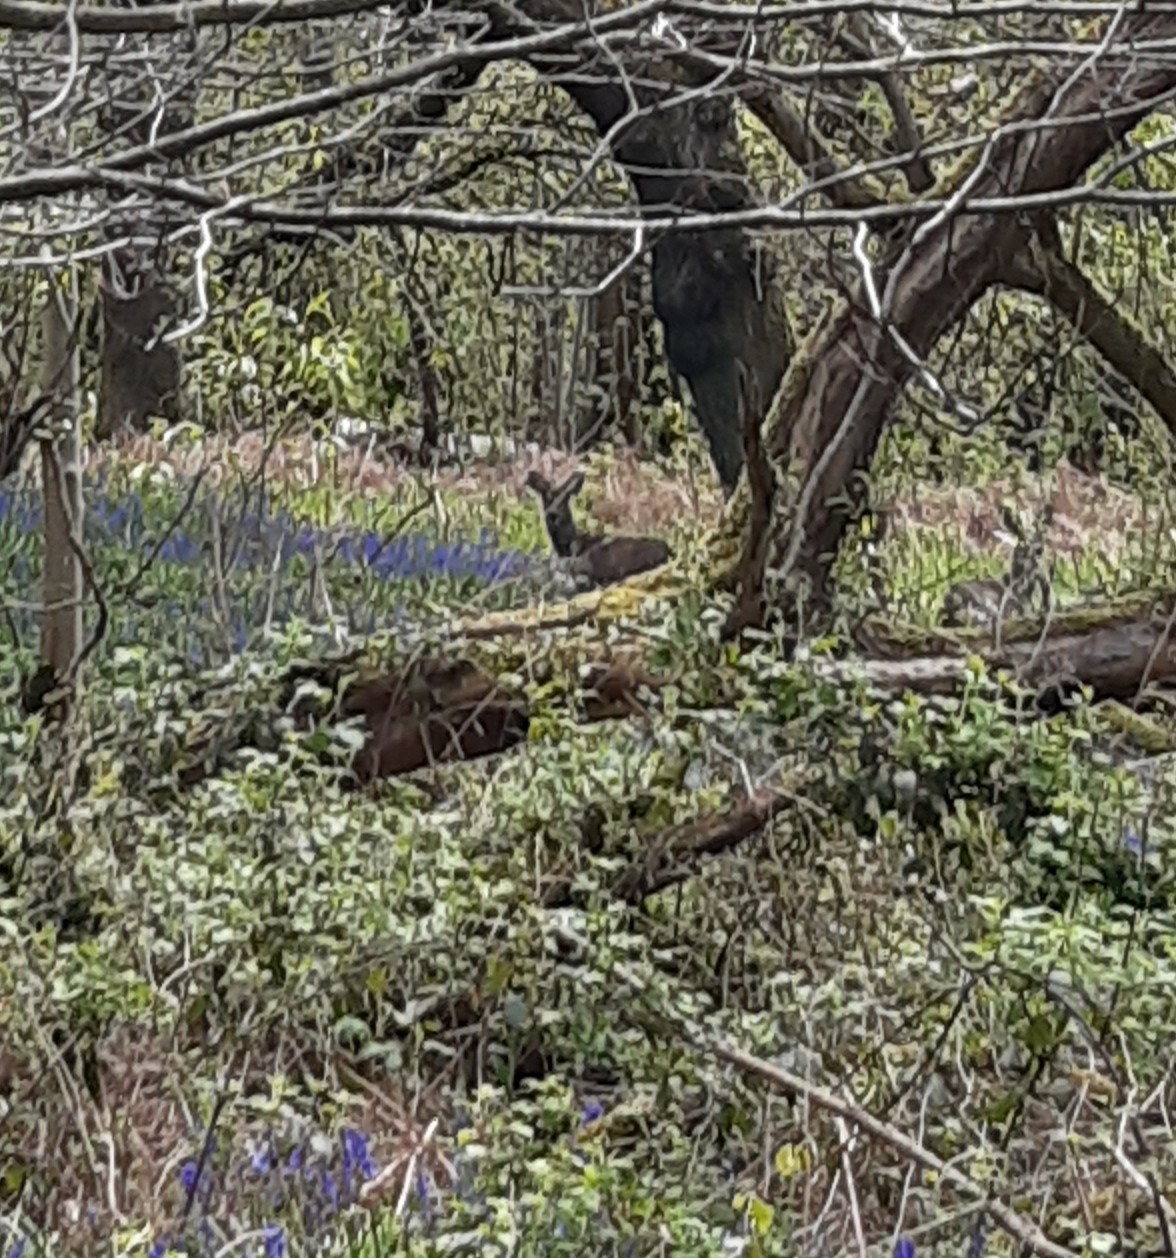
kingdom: Animalia
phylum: Chordata
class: Mammalia
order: Artiodactyla
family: Cervidae
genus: Capreolus
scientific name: Capreolus capreolus
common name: Western roe deer
